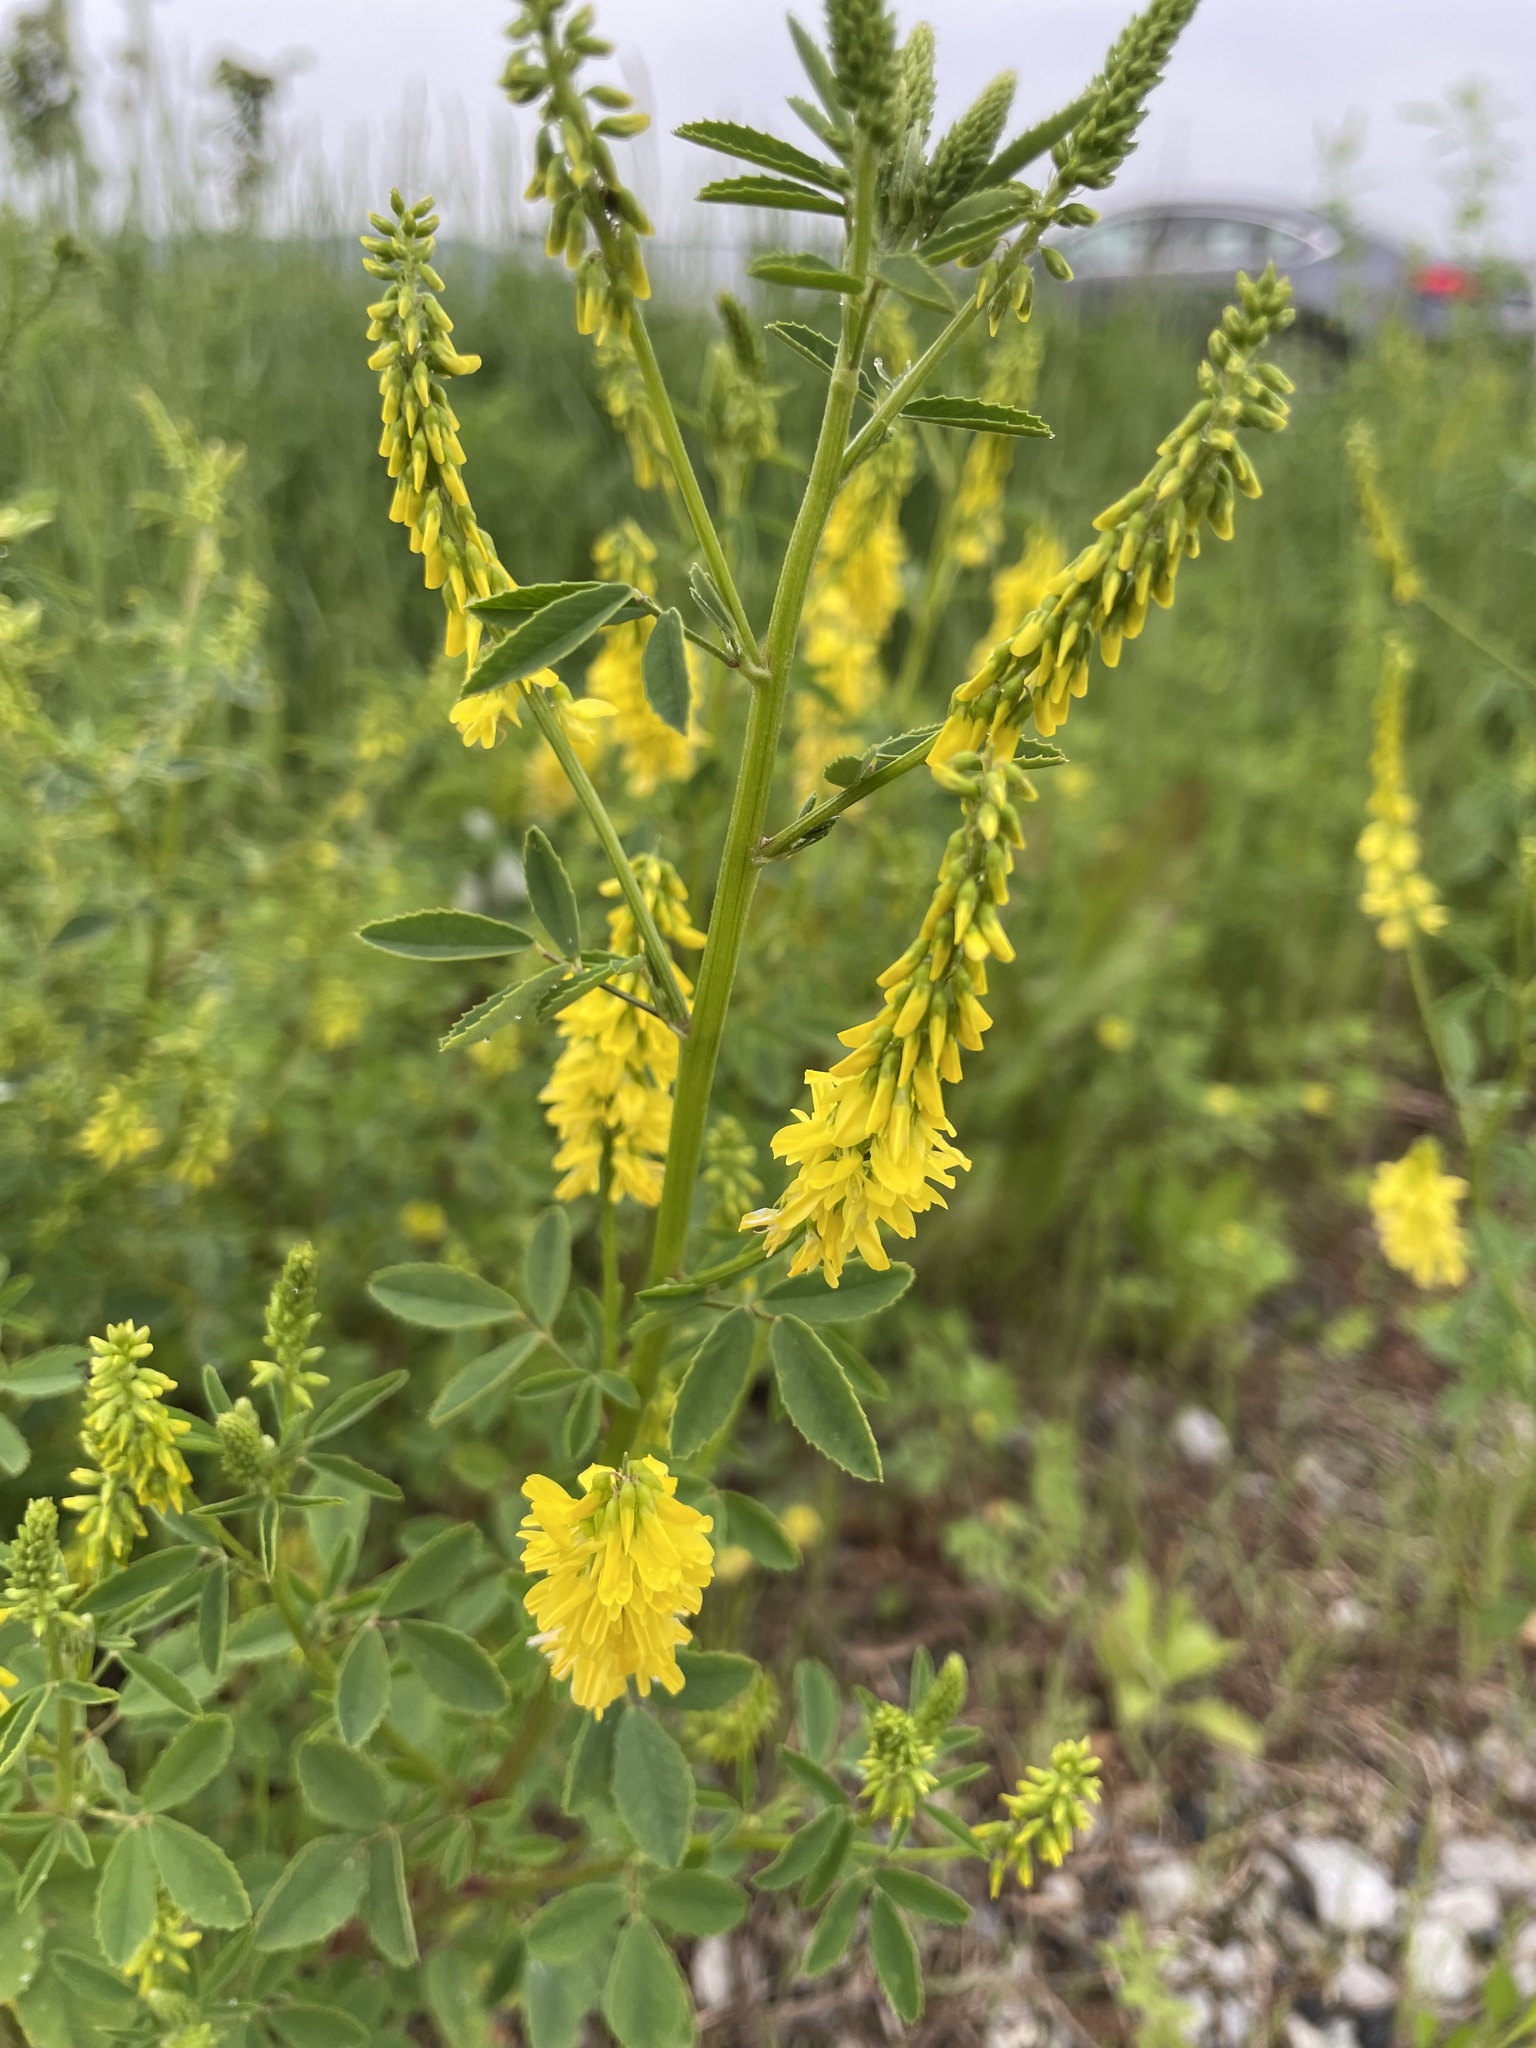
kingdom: Plantae
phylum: Tracheophyta
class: Magnoliopsida
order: Fabales
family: Fabaceae
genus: Melilotus
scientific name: Melilotus officinalis
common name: Sweetclover
